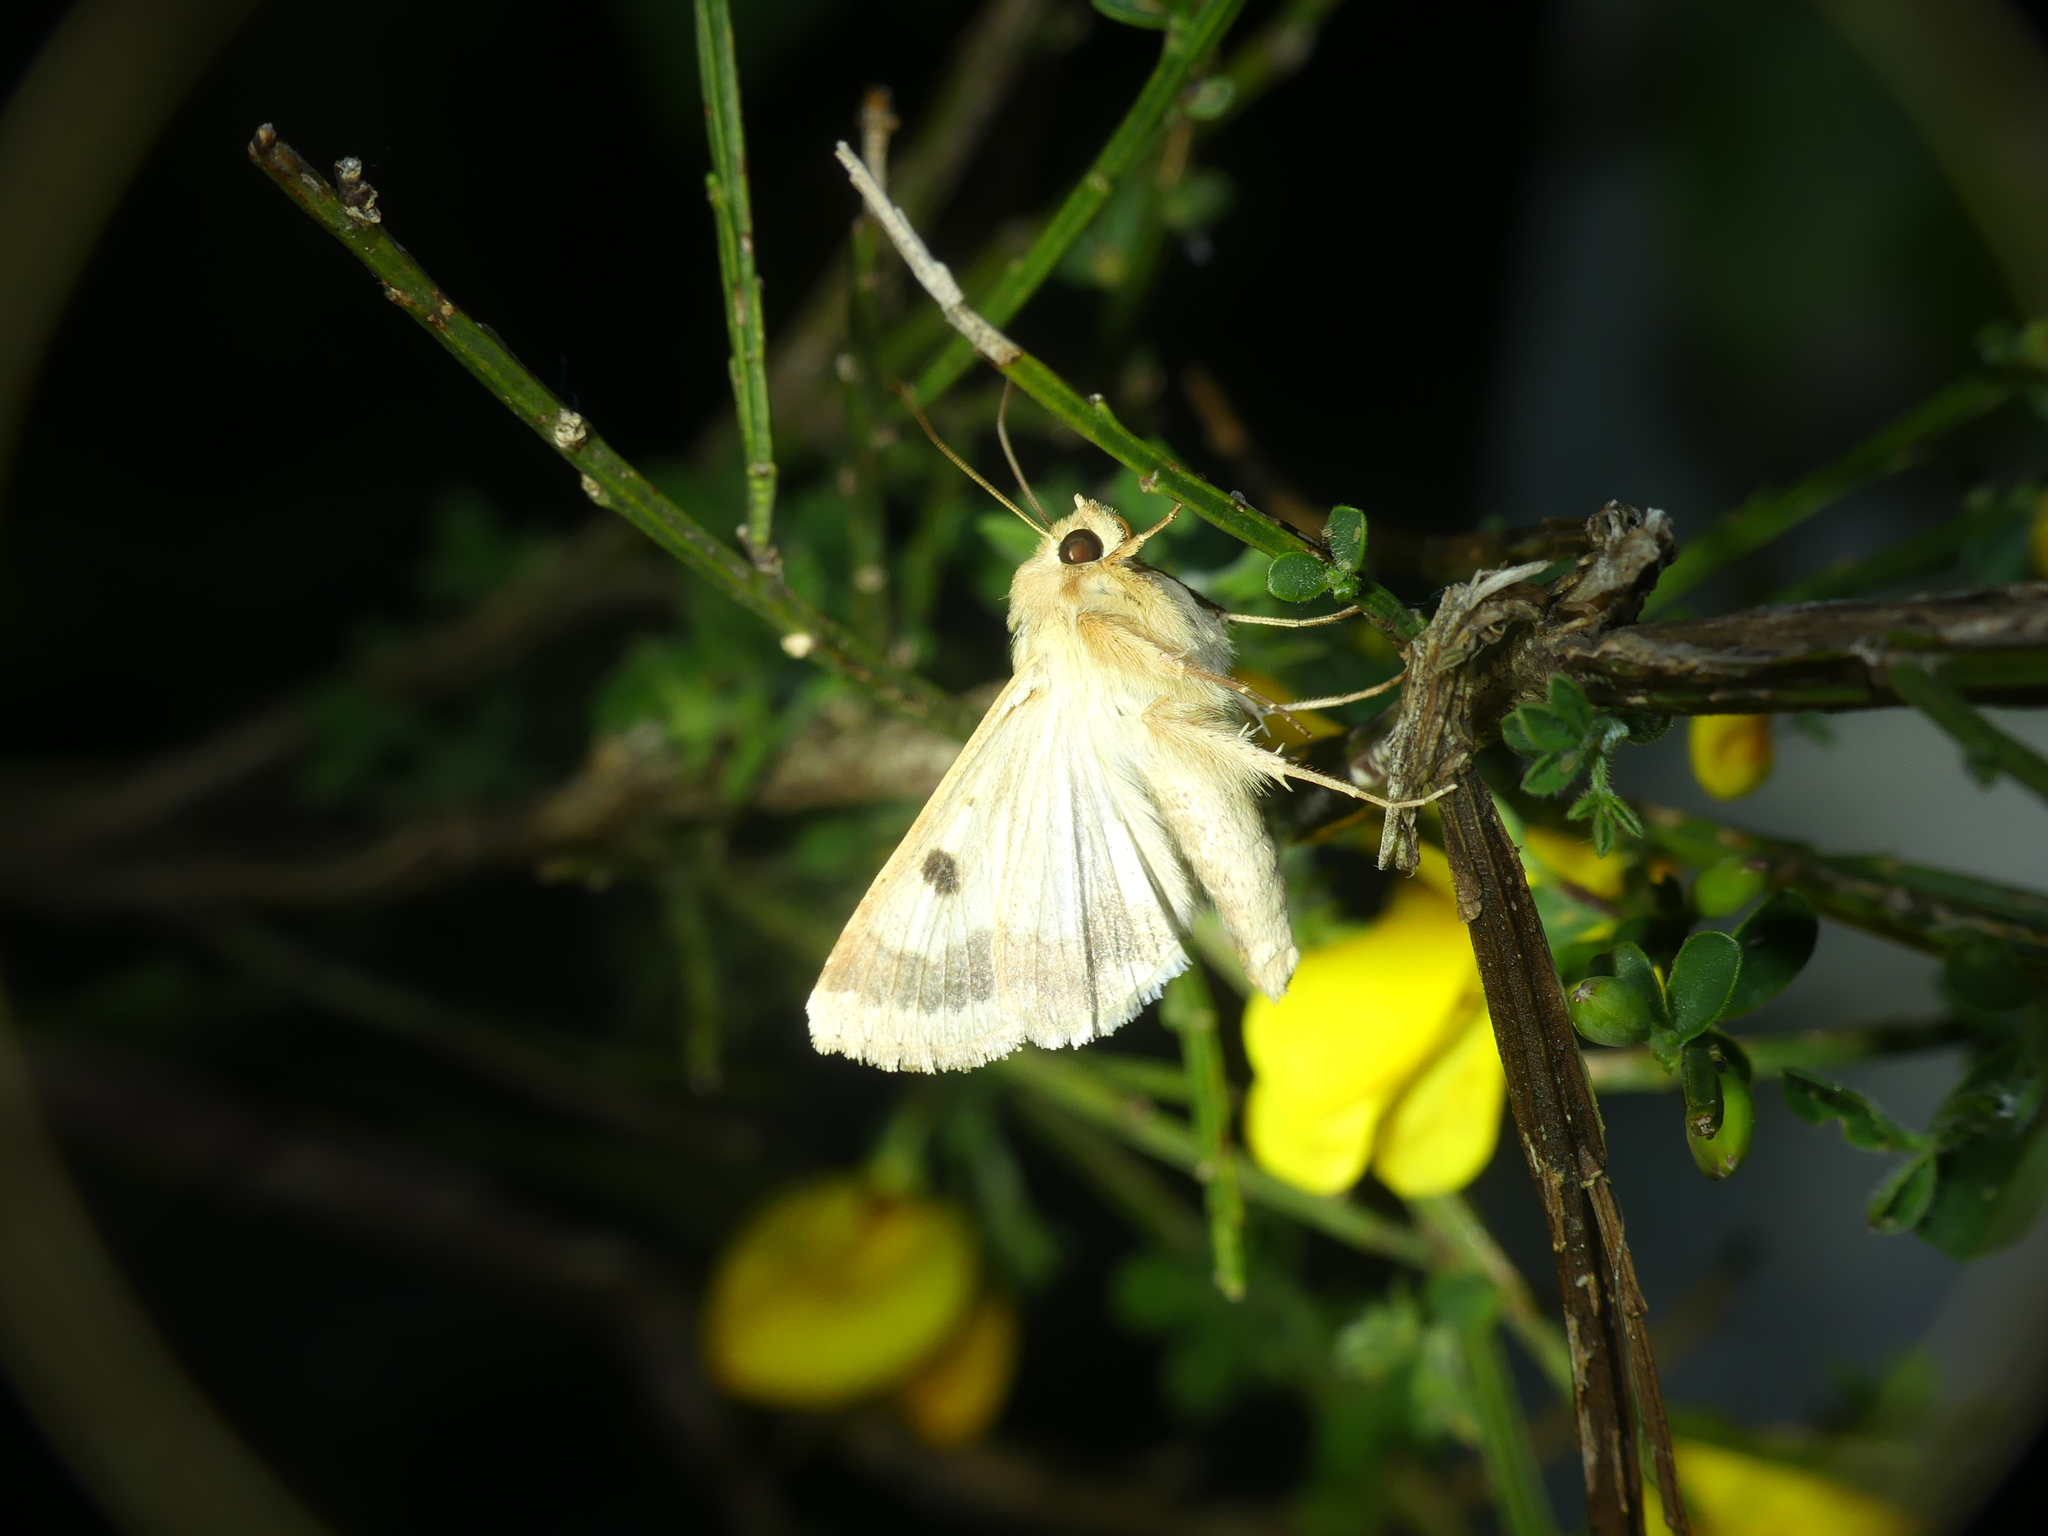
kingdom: Animalia
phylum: Arthropoda
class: Insecta
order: Lepidoptera
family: Noctuidae
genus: Heliothis
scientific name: Heliothis peltigera
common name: Bordered straw
